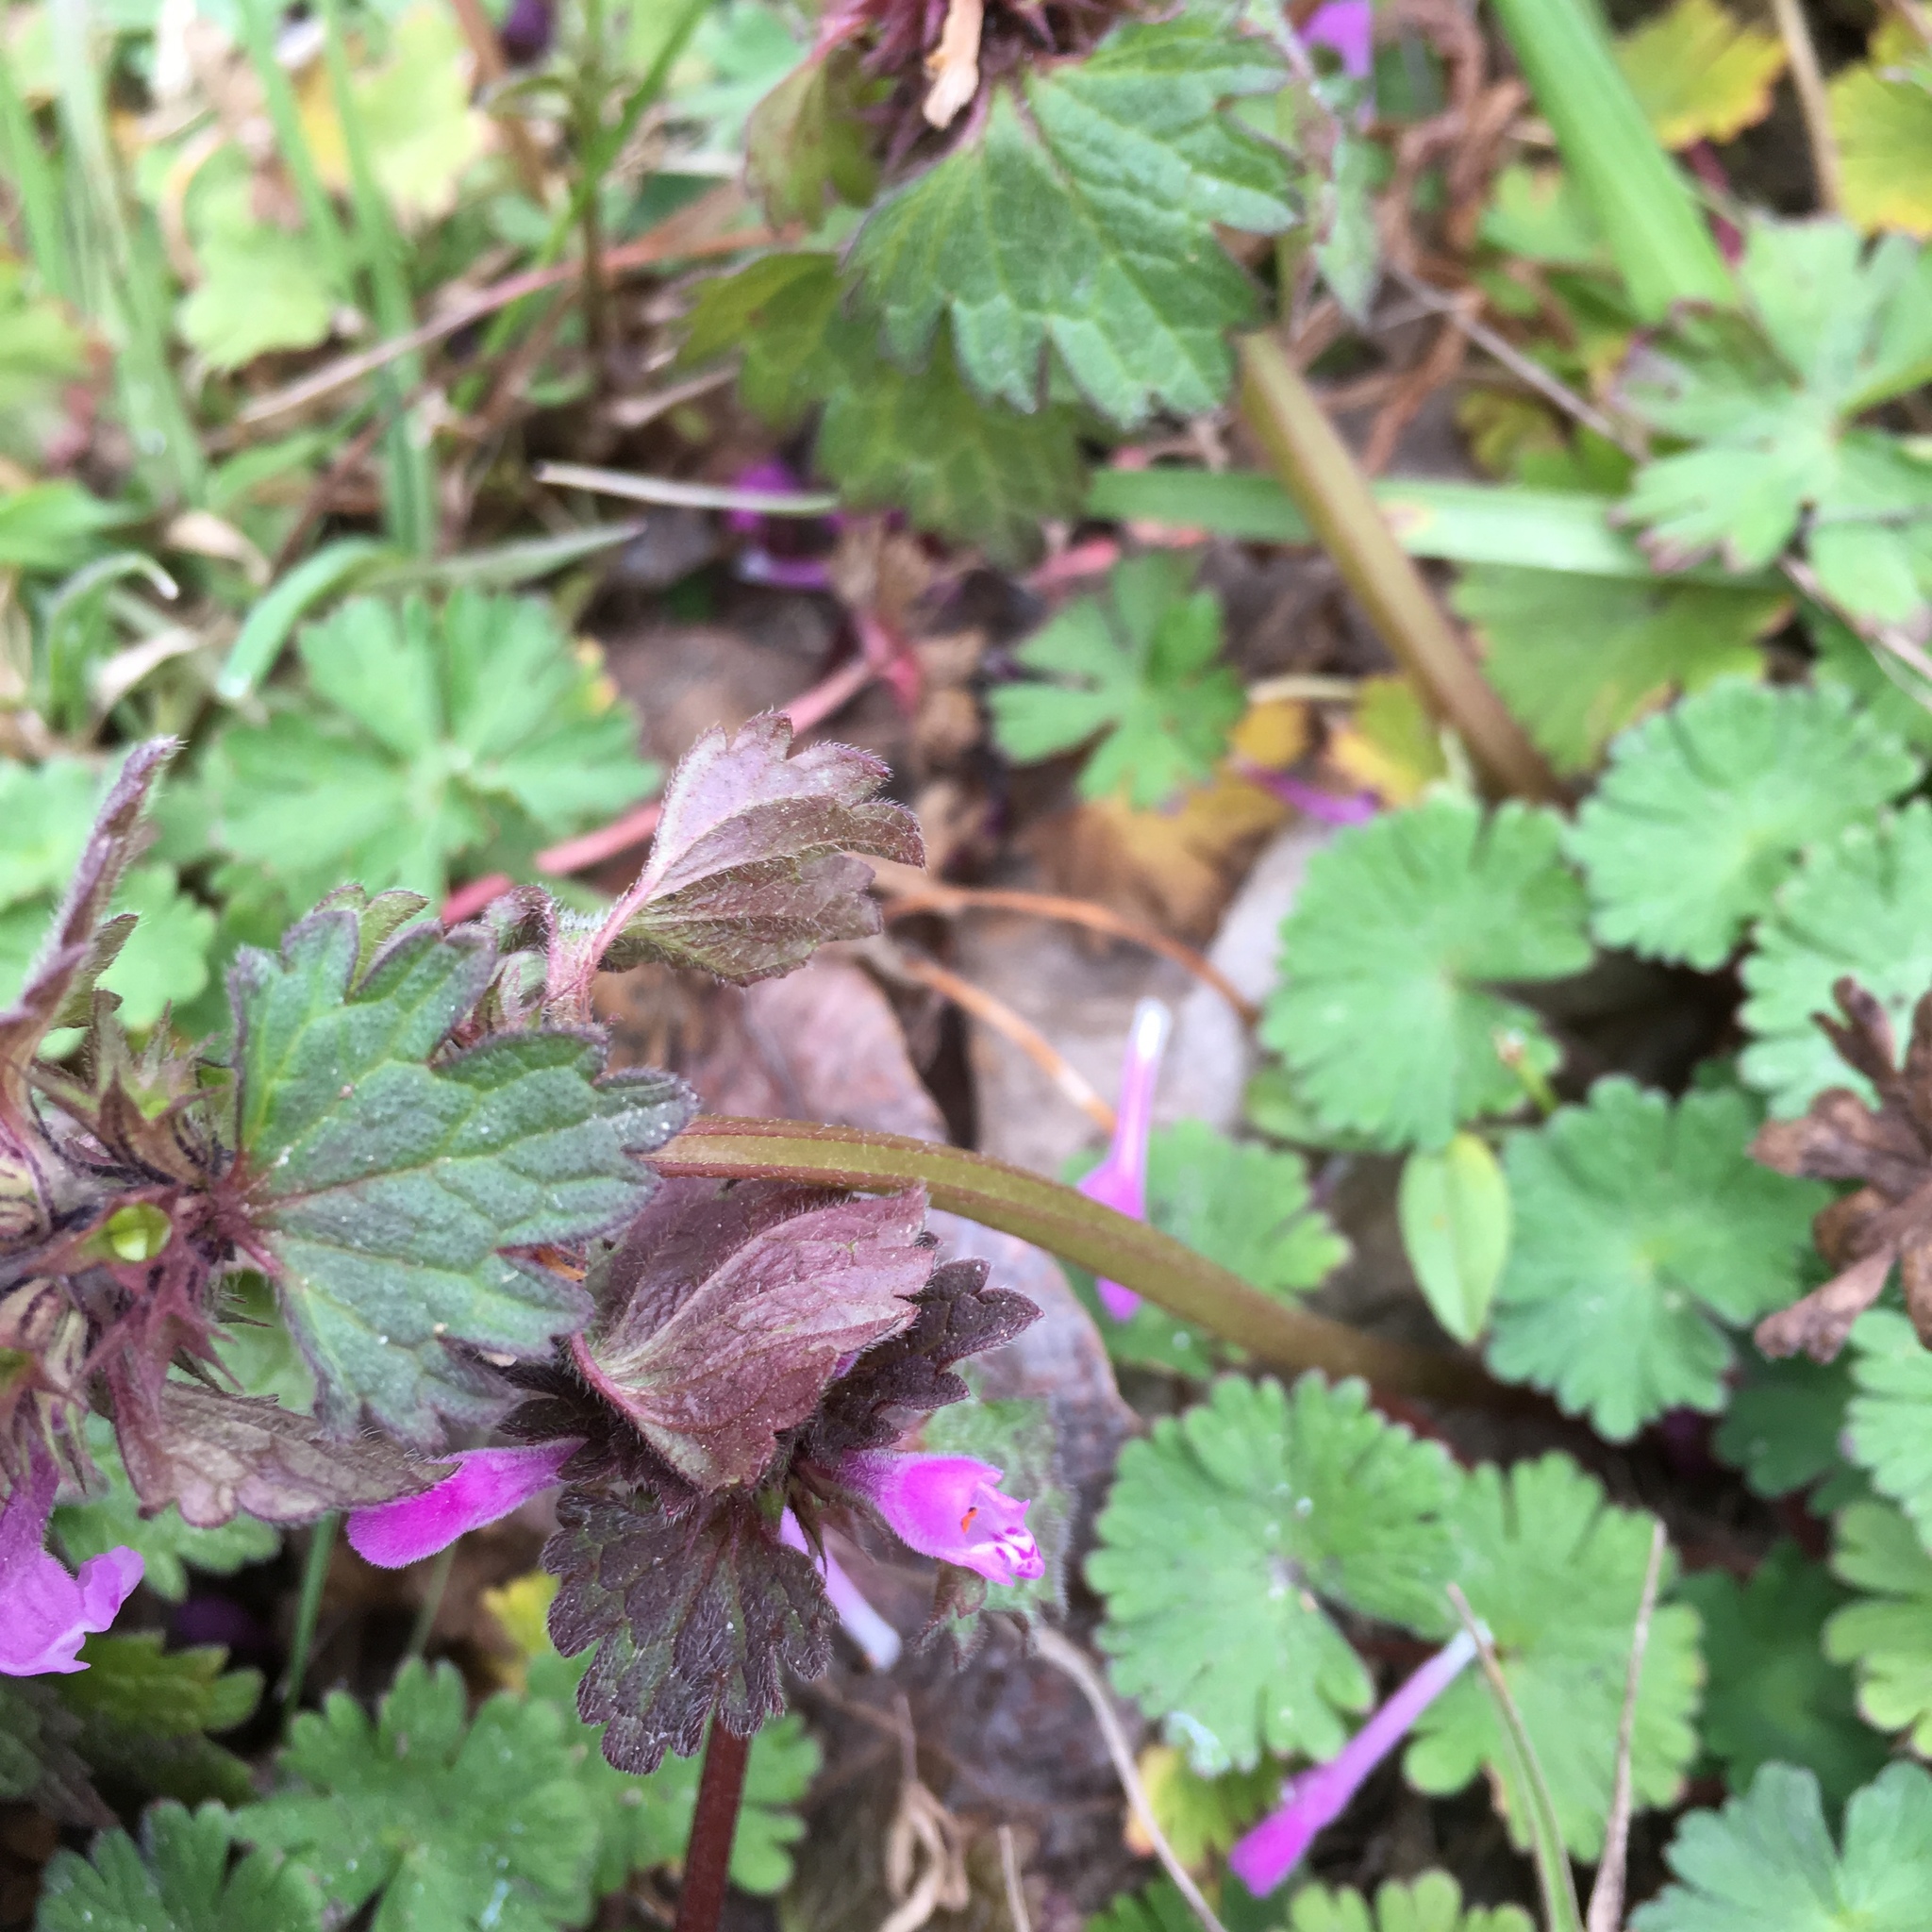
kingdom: Plantae
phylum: Tracheophyta
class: Magnoliopsida
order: Lamiales
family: Lamiaceae
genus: Lamium
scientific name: Lamium hybridum
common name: Cut-leaved dead-nettle
